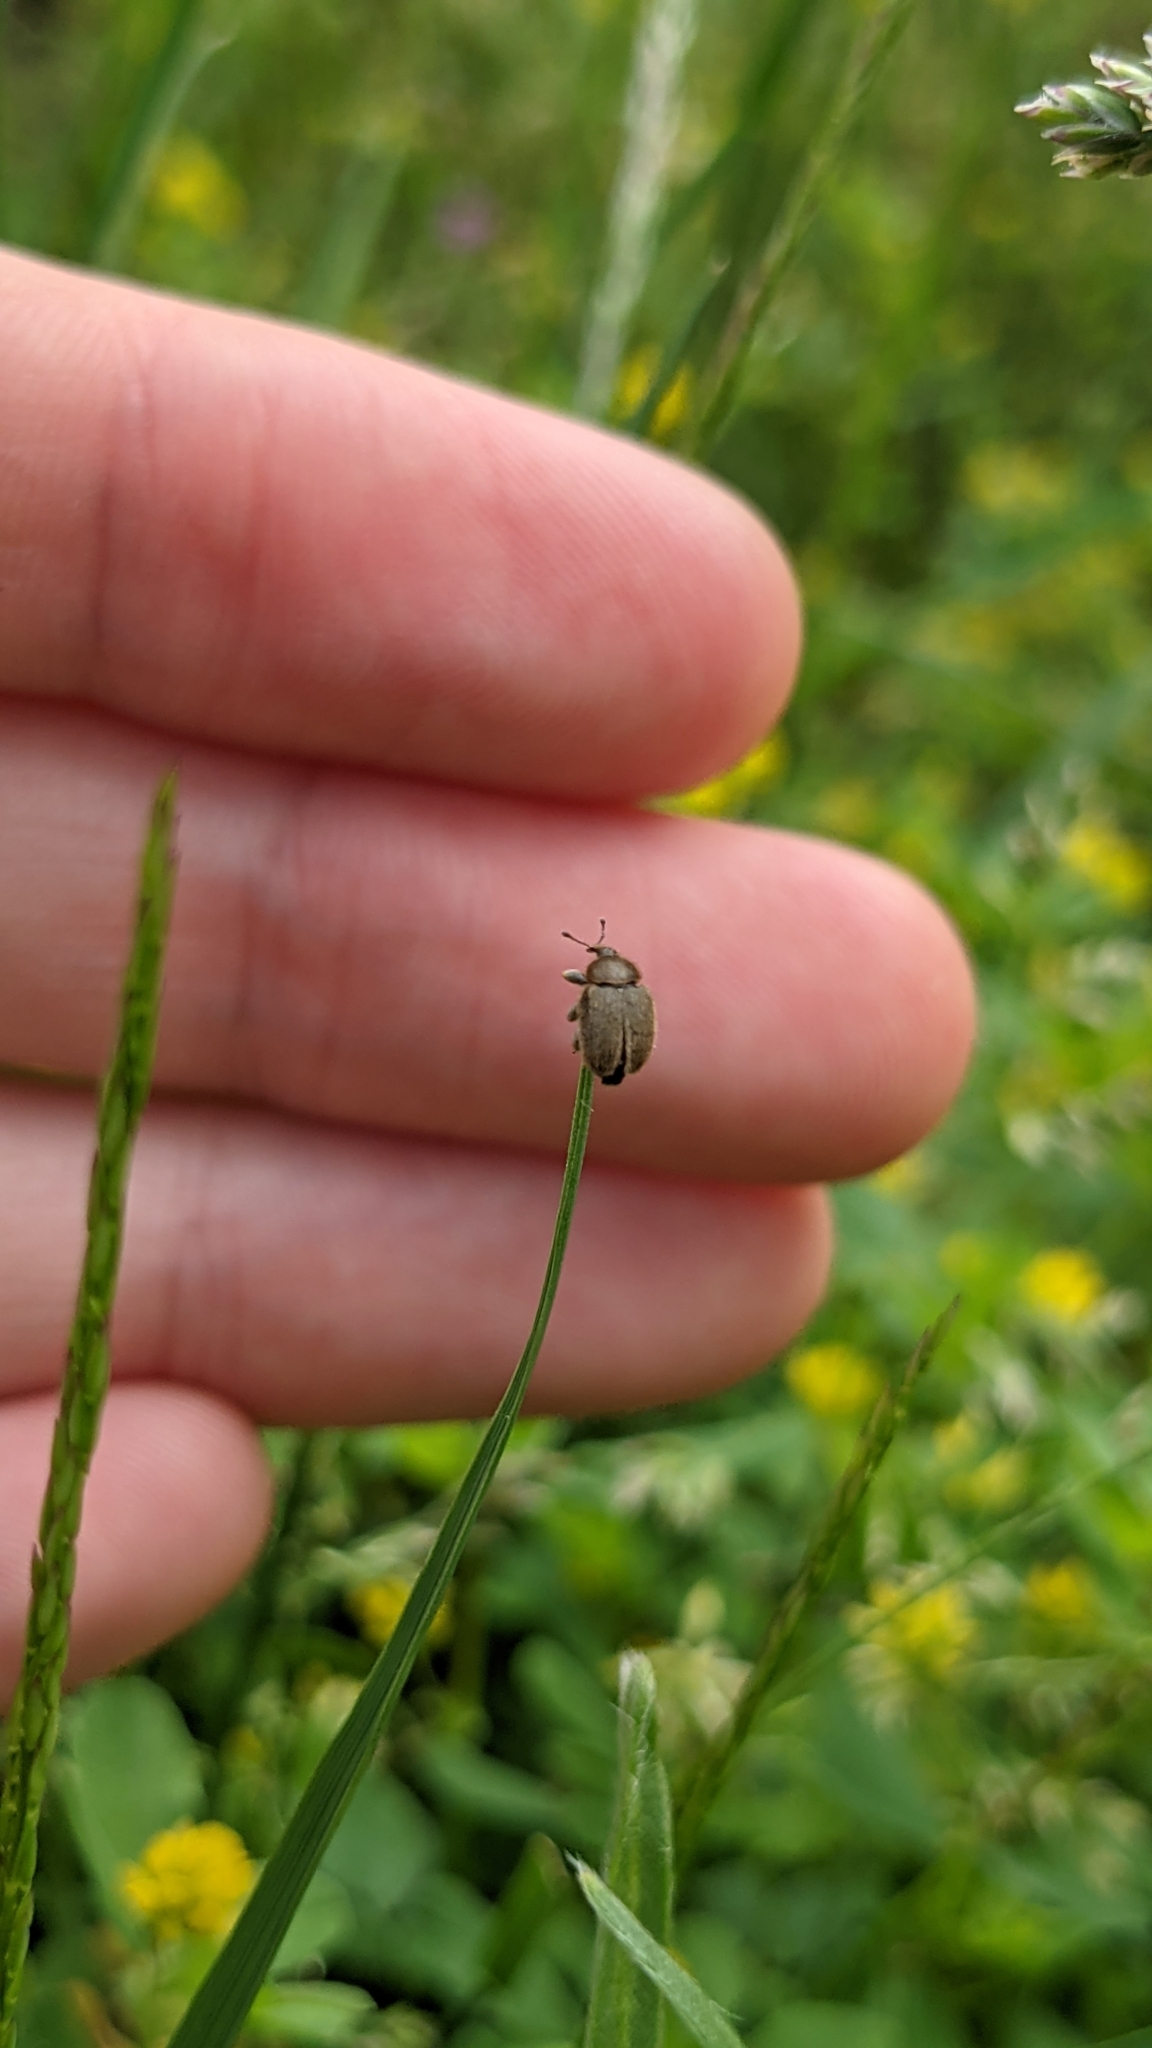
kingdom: Animalia
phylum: Arthropoda
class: Insecta
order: Coleoptera
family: Curculionidae
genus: Rhinusa
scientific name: Rhinusa tetra
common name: Weevil
